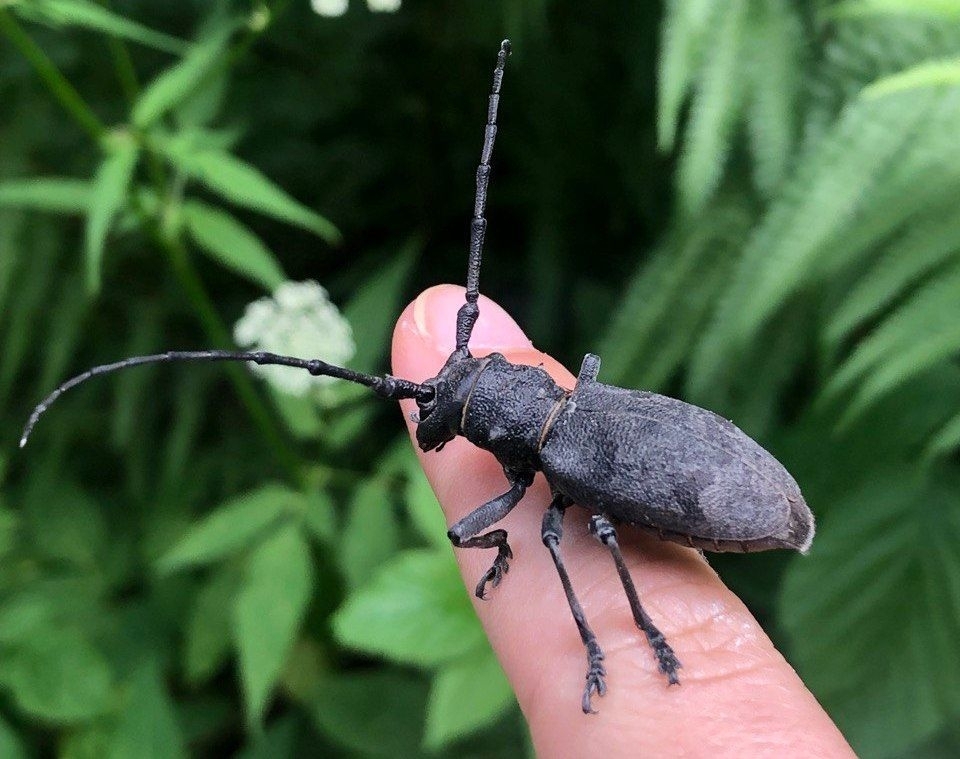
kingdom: Animalia
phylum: Arthropoda
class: Insecta
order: Coleoptera
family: Cerambycidae
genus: Morimus
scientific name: Morimus asper
